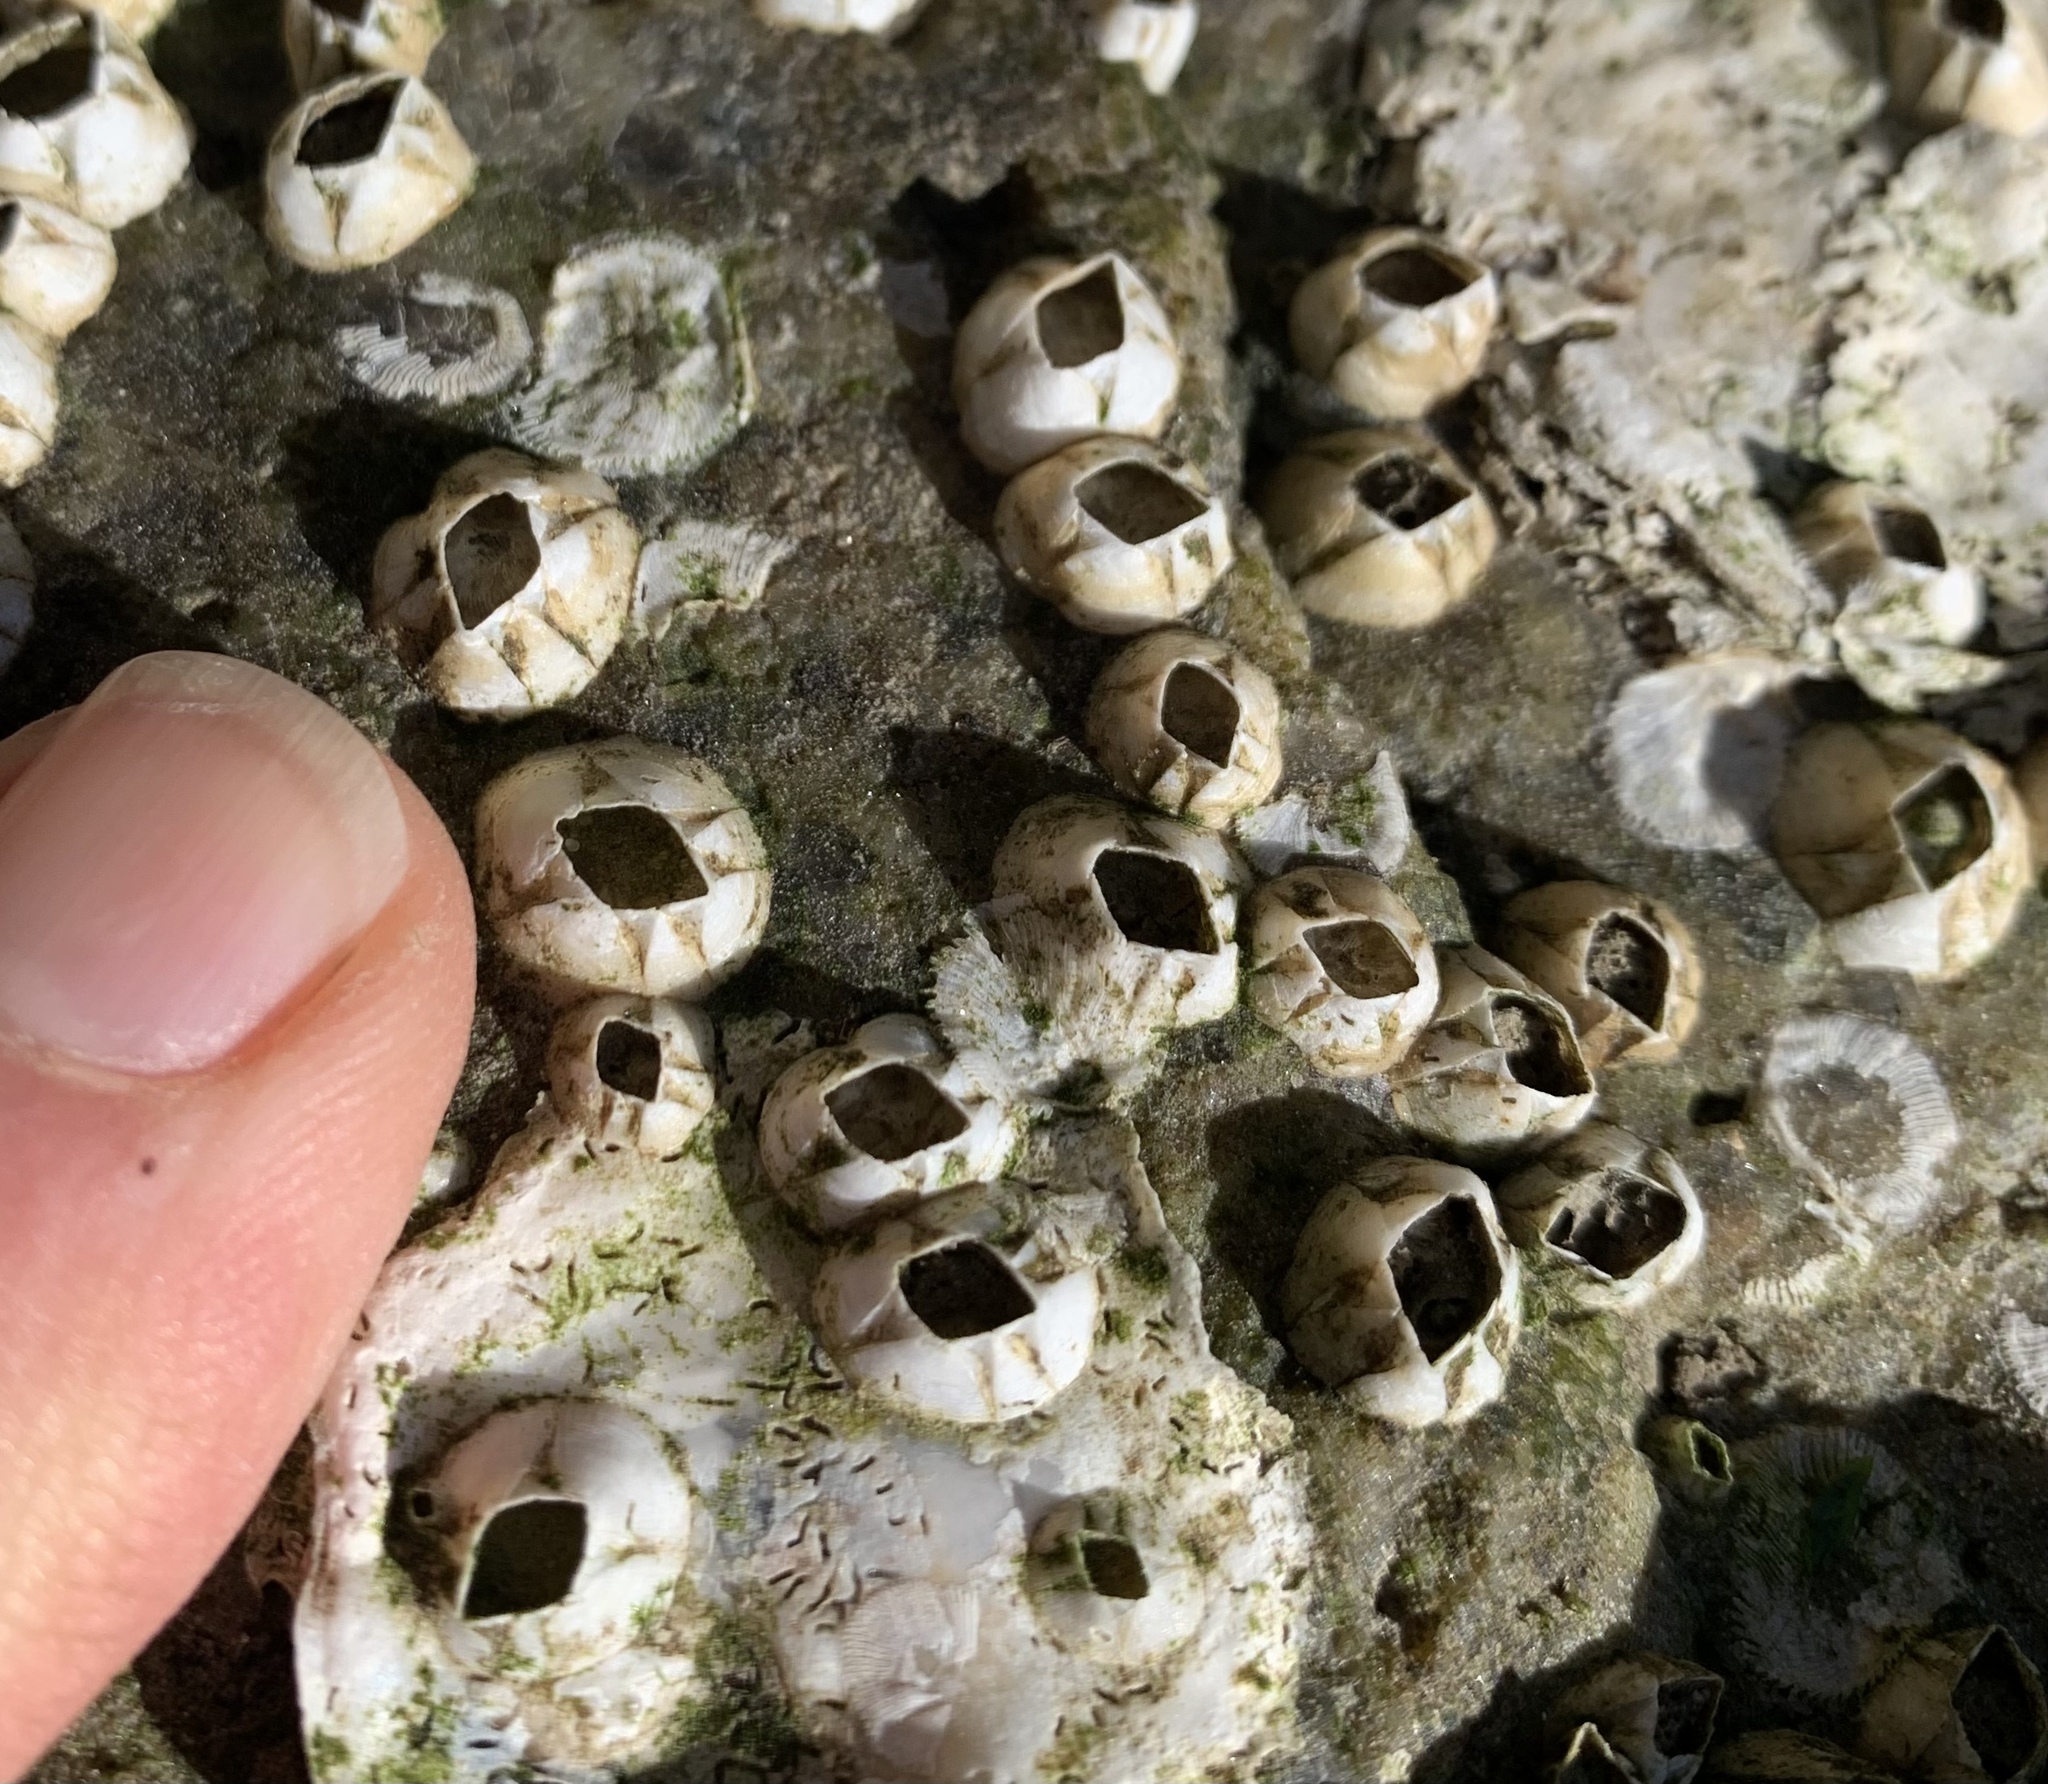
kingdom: Animalia
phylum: Arthropoda
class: Maxillopoda
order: Sessilia
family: Balanidae
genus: Amphibalanus
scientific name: Amphibalanus improvisus
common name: Bay barnacle
